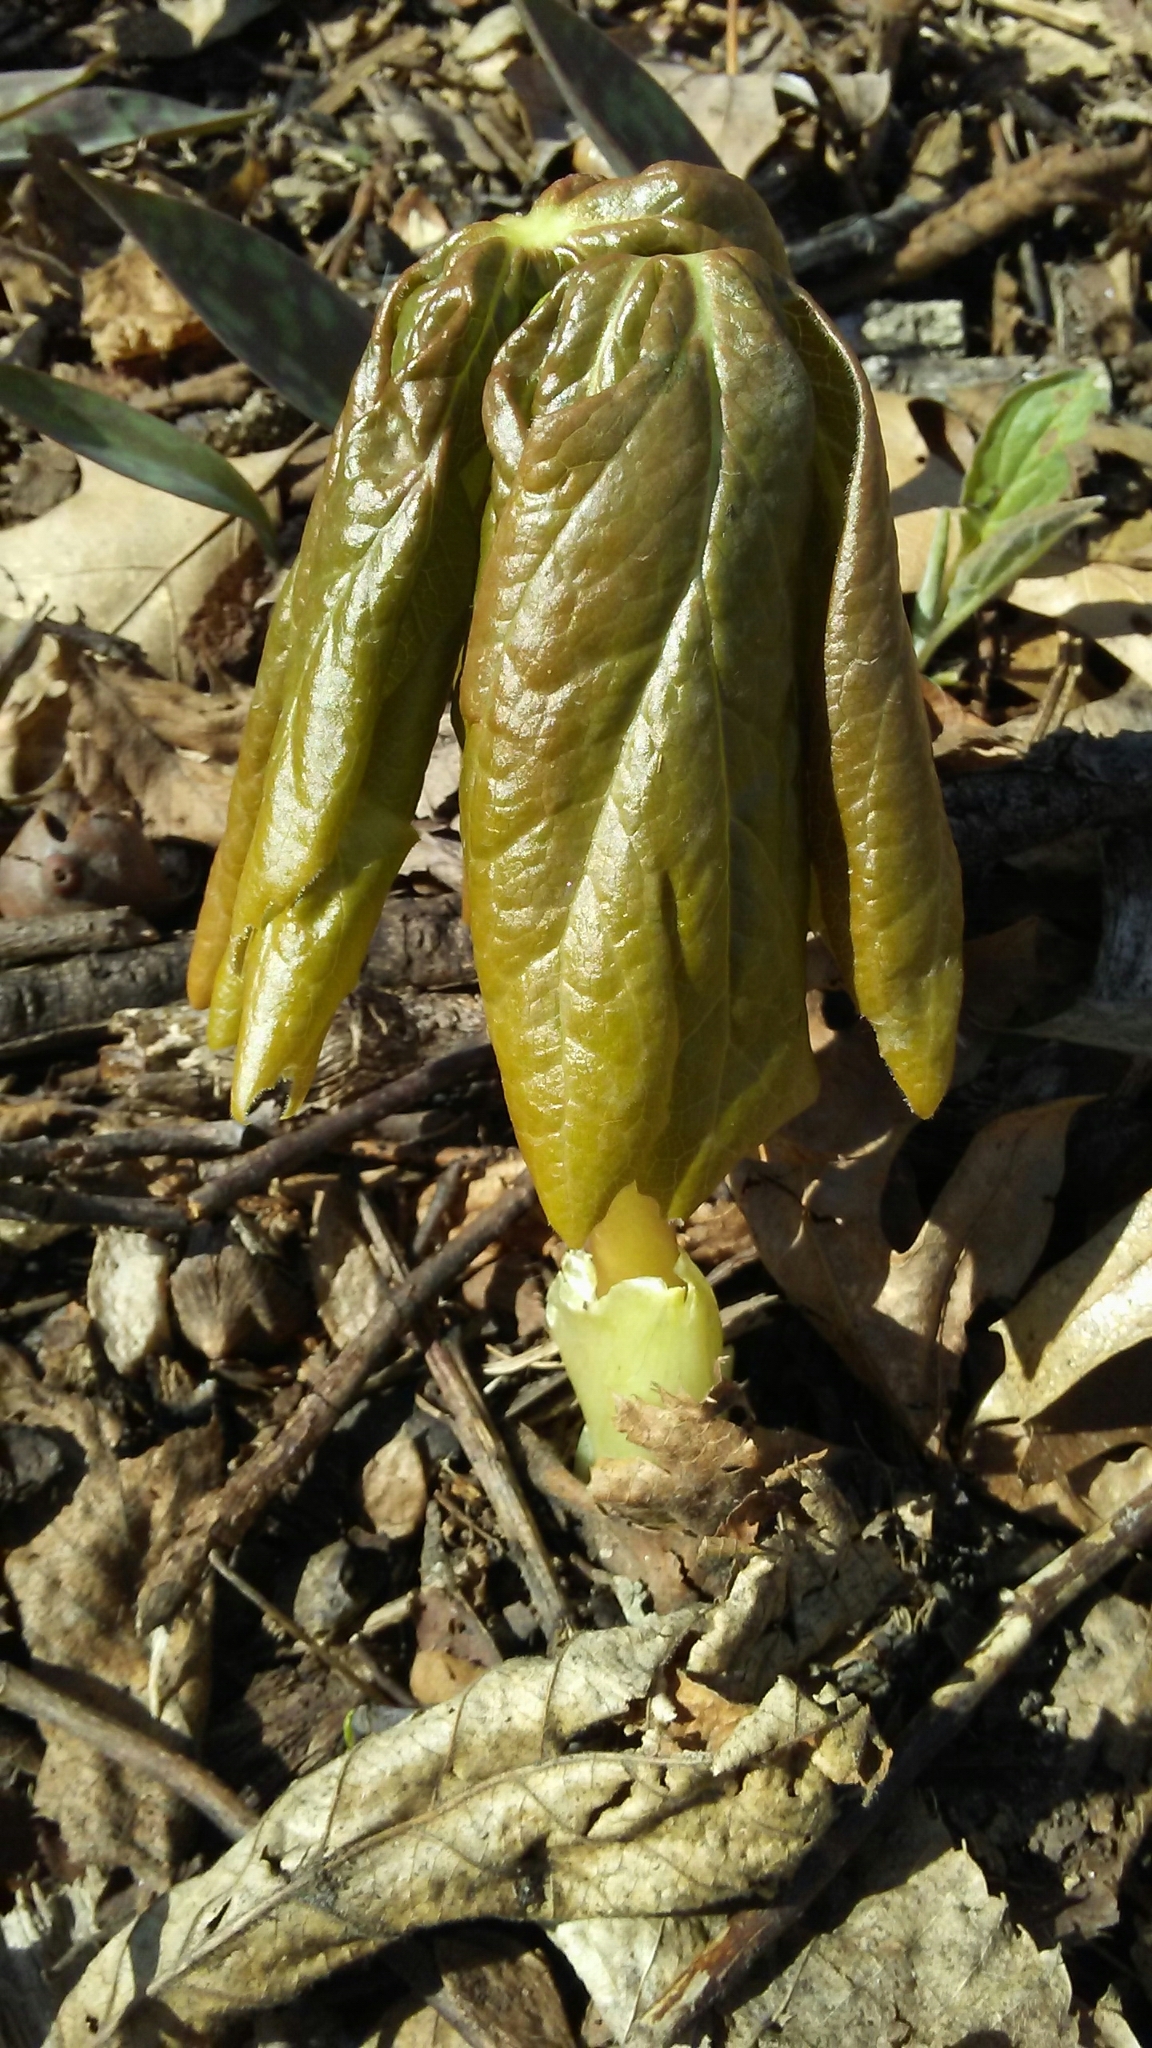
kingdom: Plantae
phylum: Tracheophyta
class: Magnoliopsida
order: Ranunculales
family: Berberidaceae
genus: Podophyllum
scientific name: Podophyllum peltatum
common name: Wild mandrake
